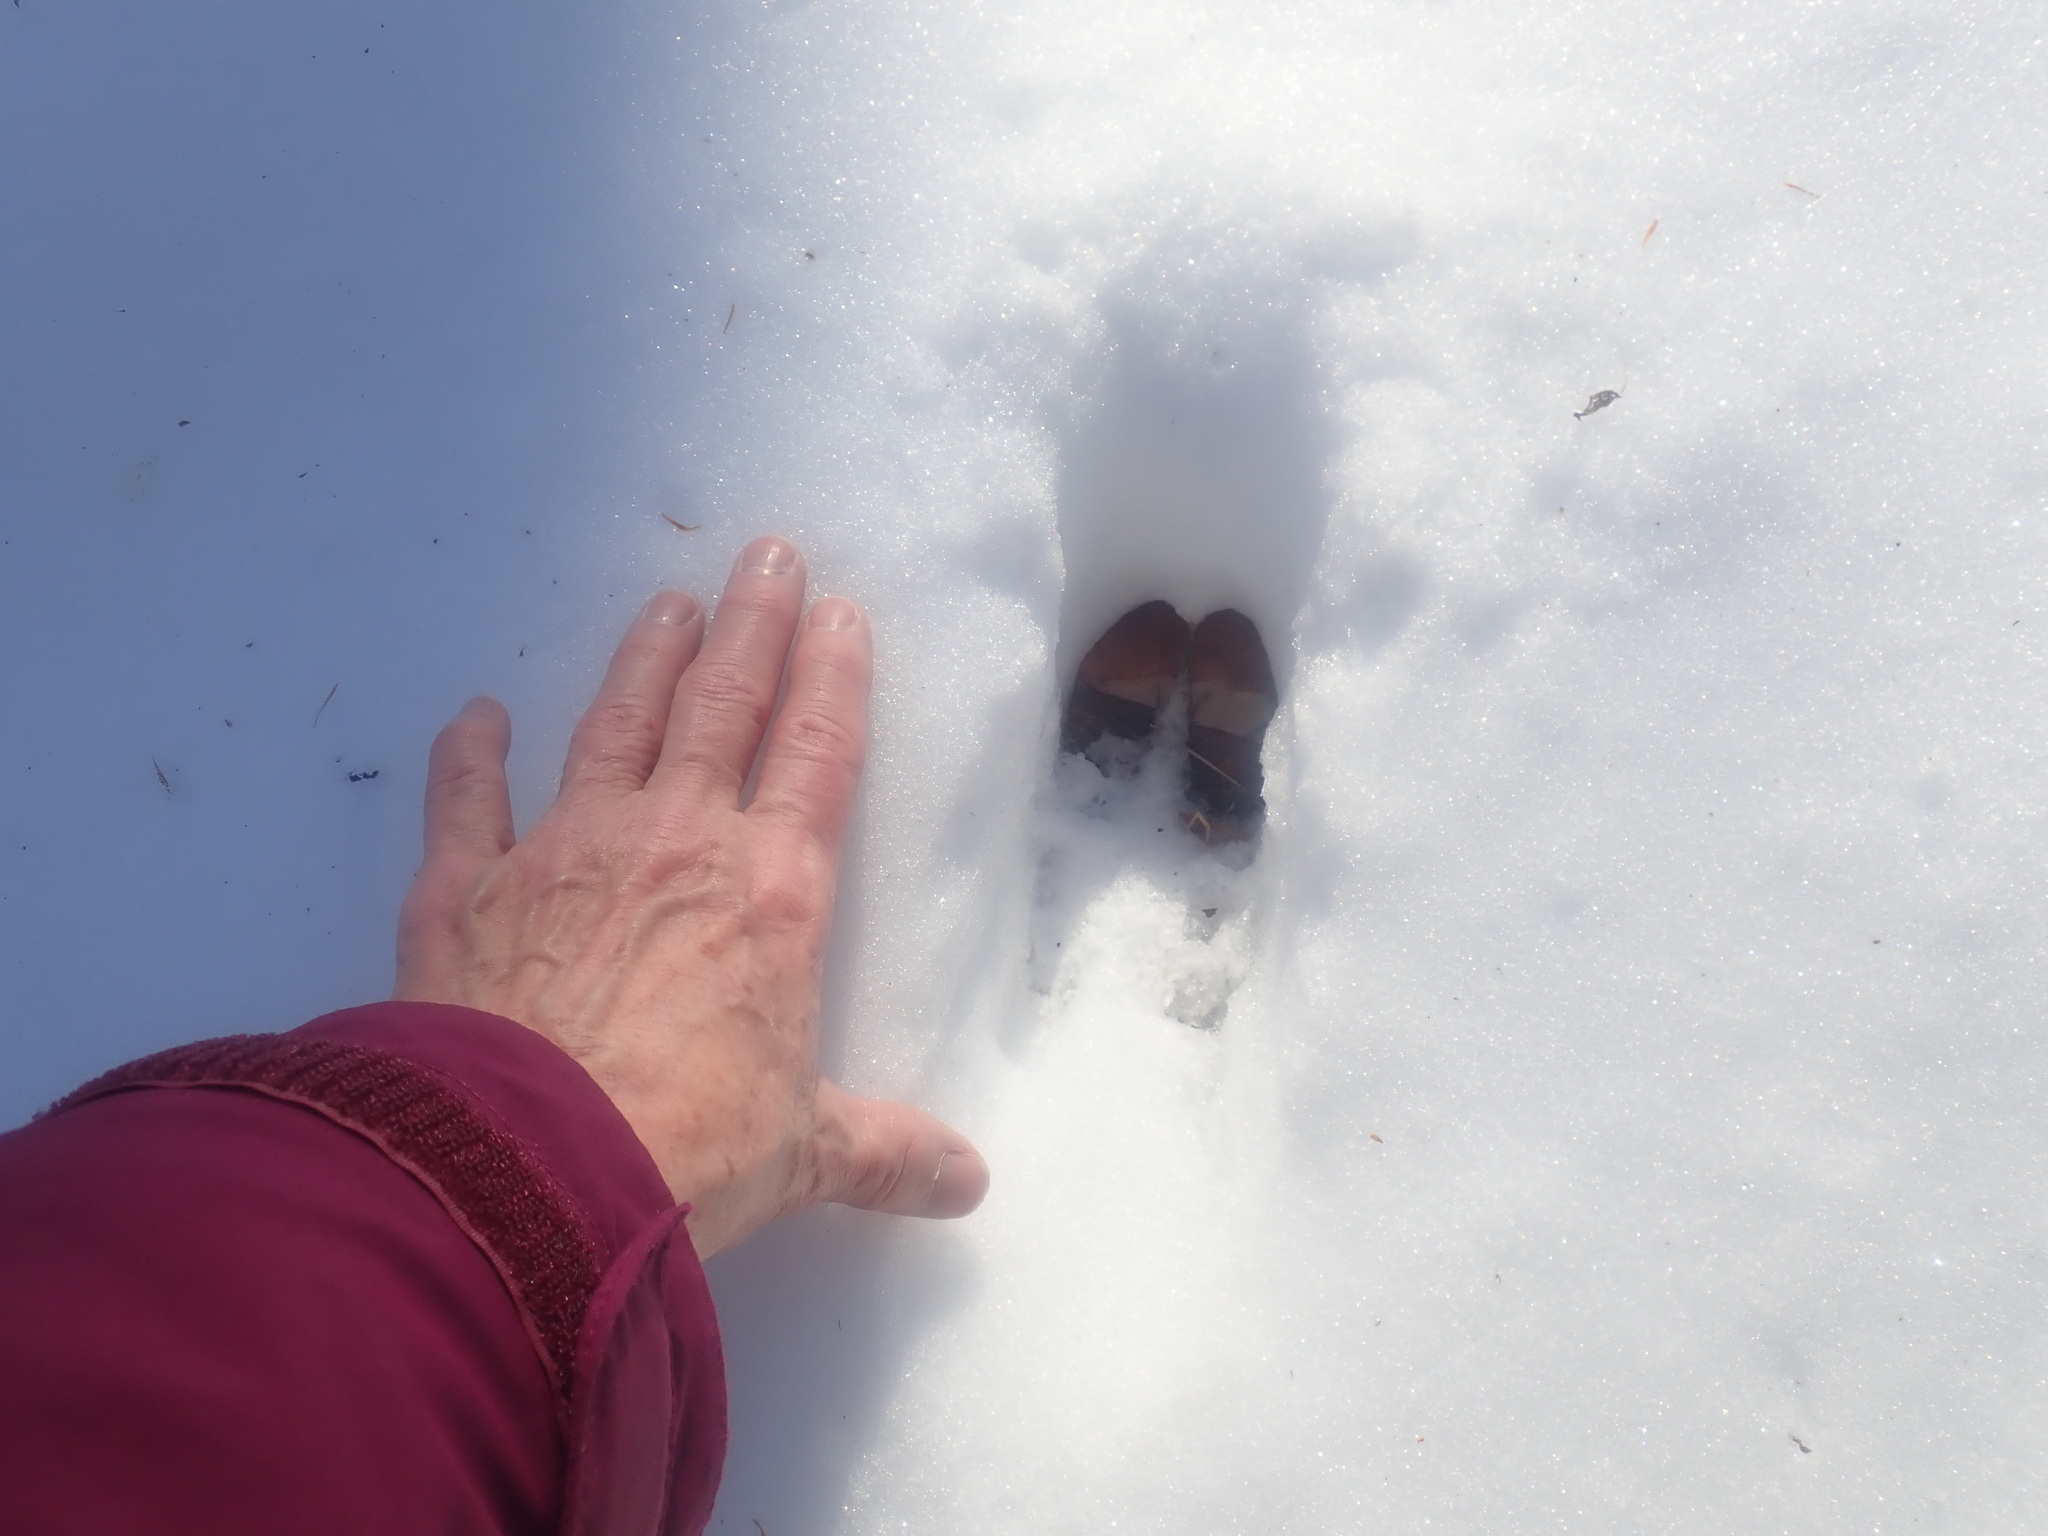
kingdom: Animalia
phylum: Chordata
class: Mammalia
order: Artiodactyla
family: Cervidae
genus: Odocoileus
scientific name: Odocoileus virginianus
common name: White-tailed deer
